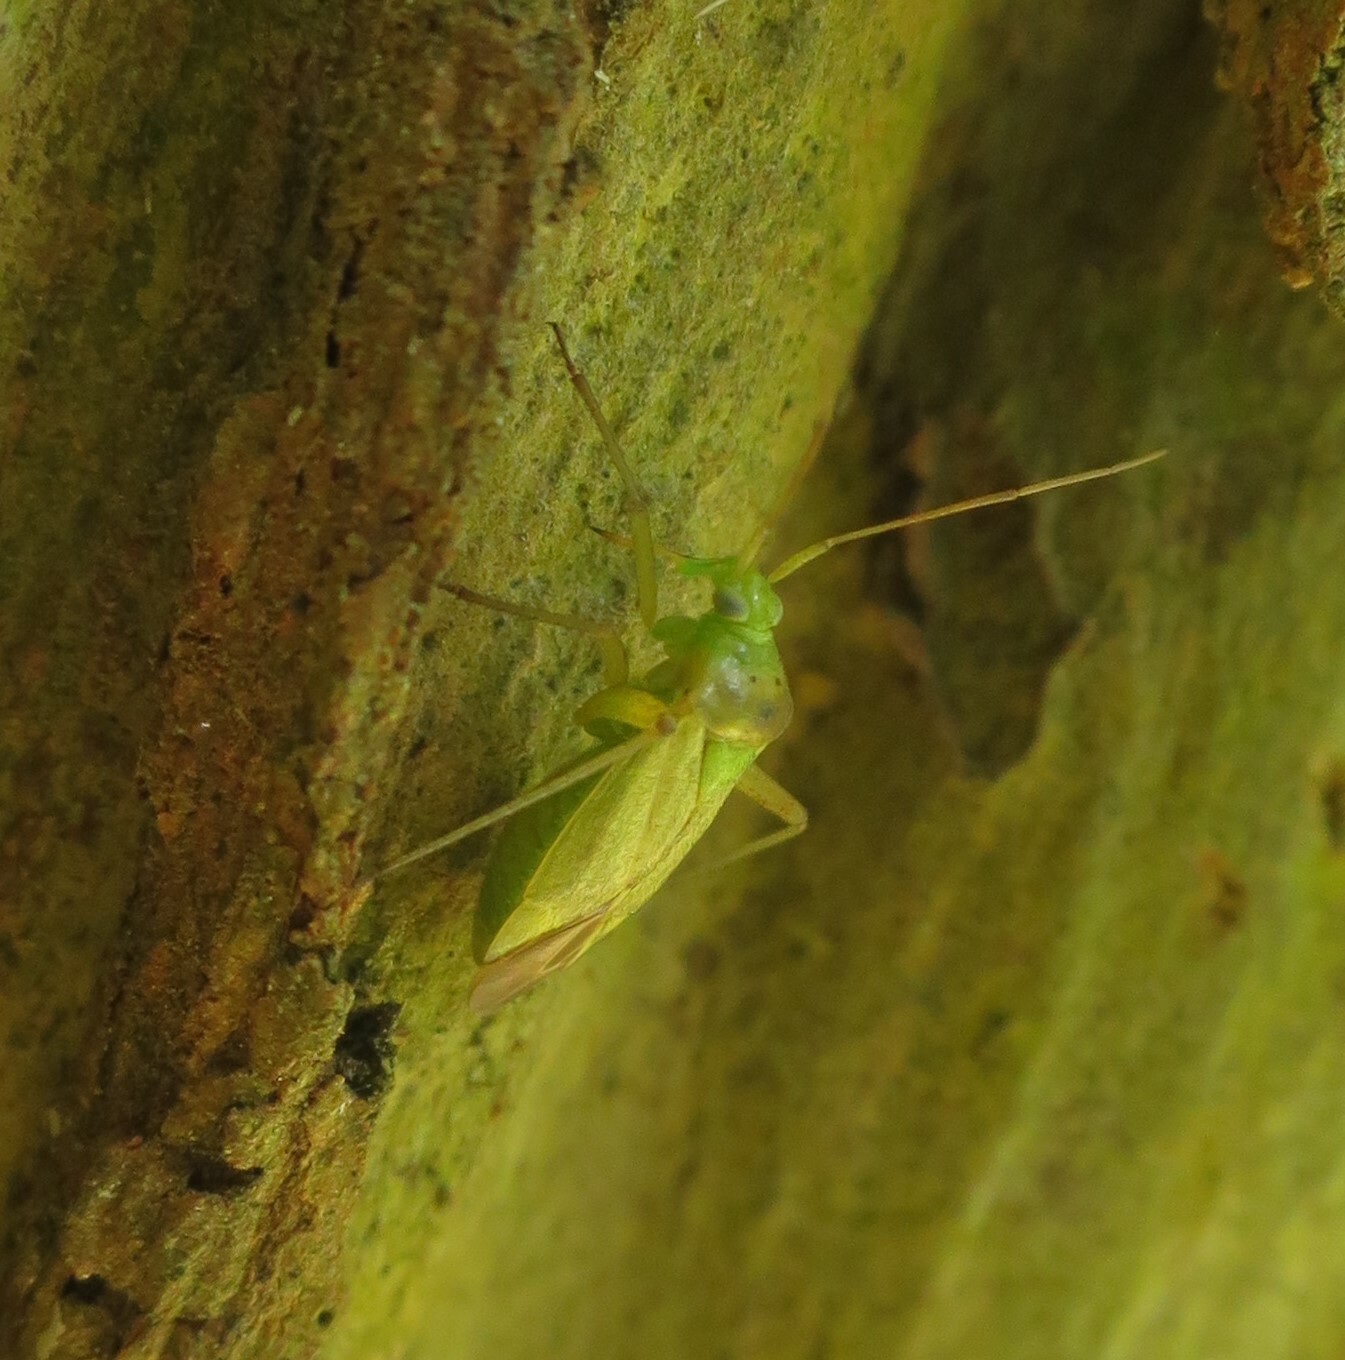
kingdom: Animalia
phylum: Arthropoda
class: Insecta
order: Hemiptera
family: Miridae
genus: Closterotomus
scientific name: Closterotomus norvegicus
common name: Plant bug
